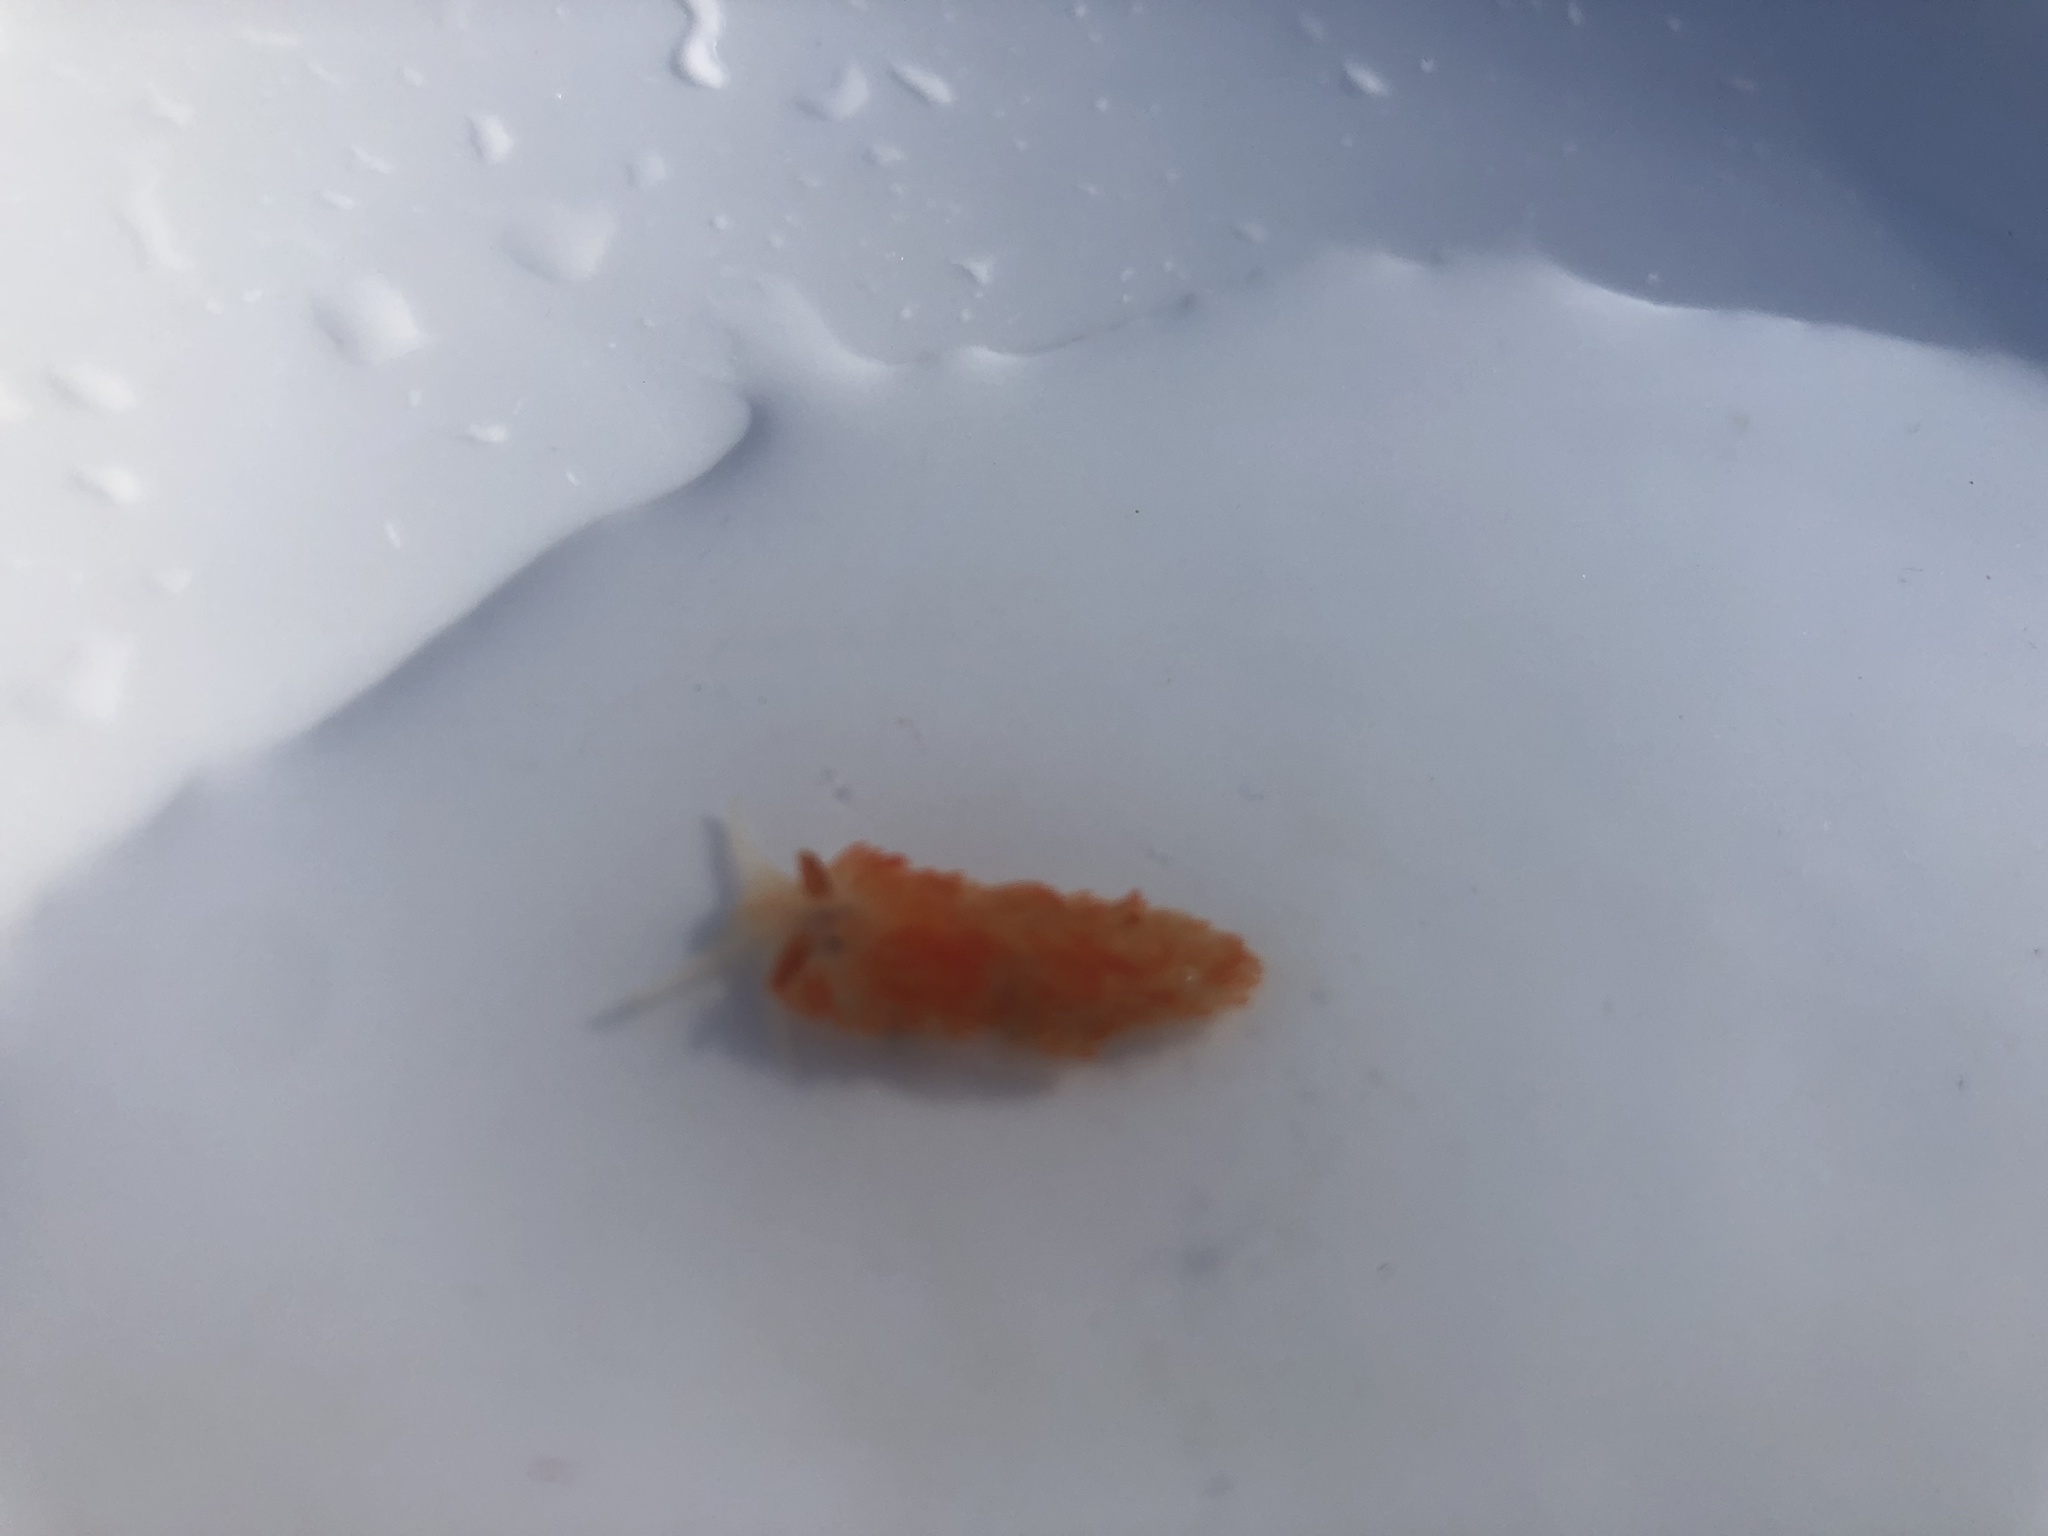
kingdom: Animalia
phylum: Mollusca
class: Gastropoda
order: Nudibranchia
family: Aeolidiidae
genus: Anteaeolidiella
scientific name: Anteaeolidiella oliviae
